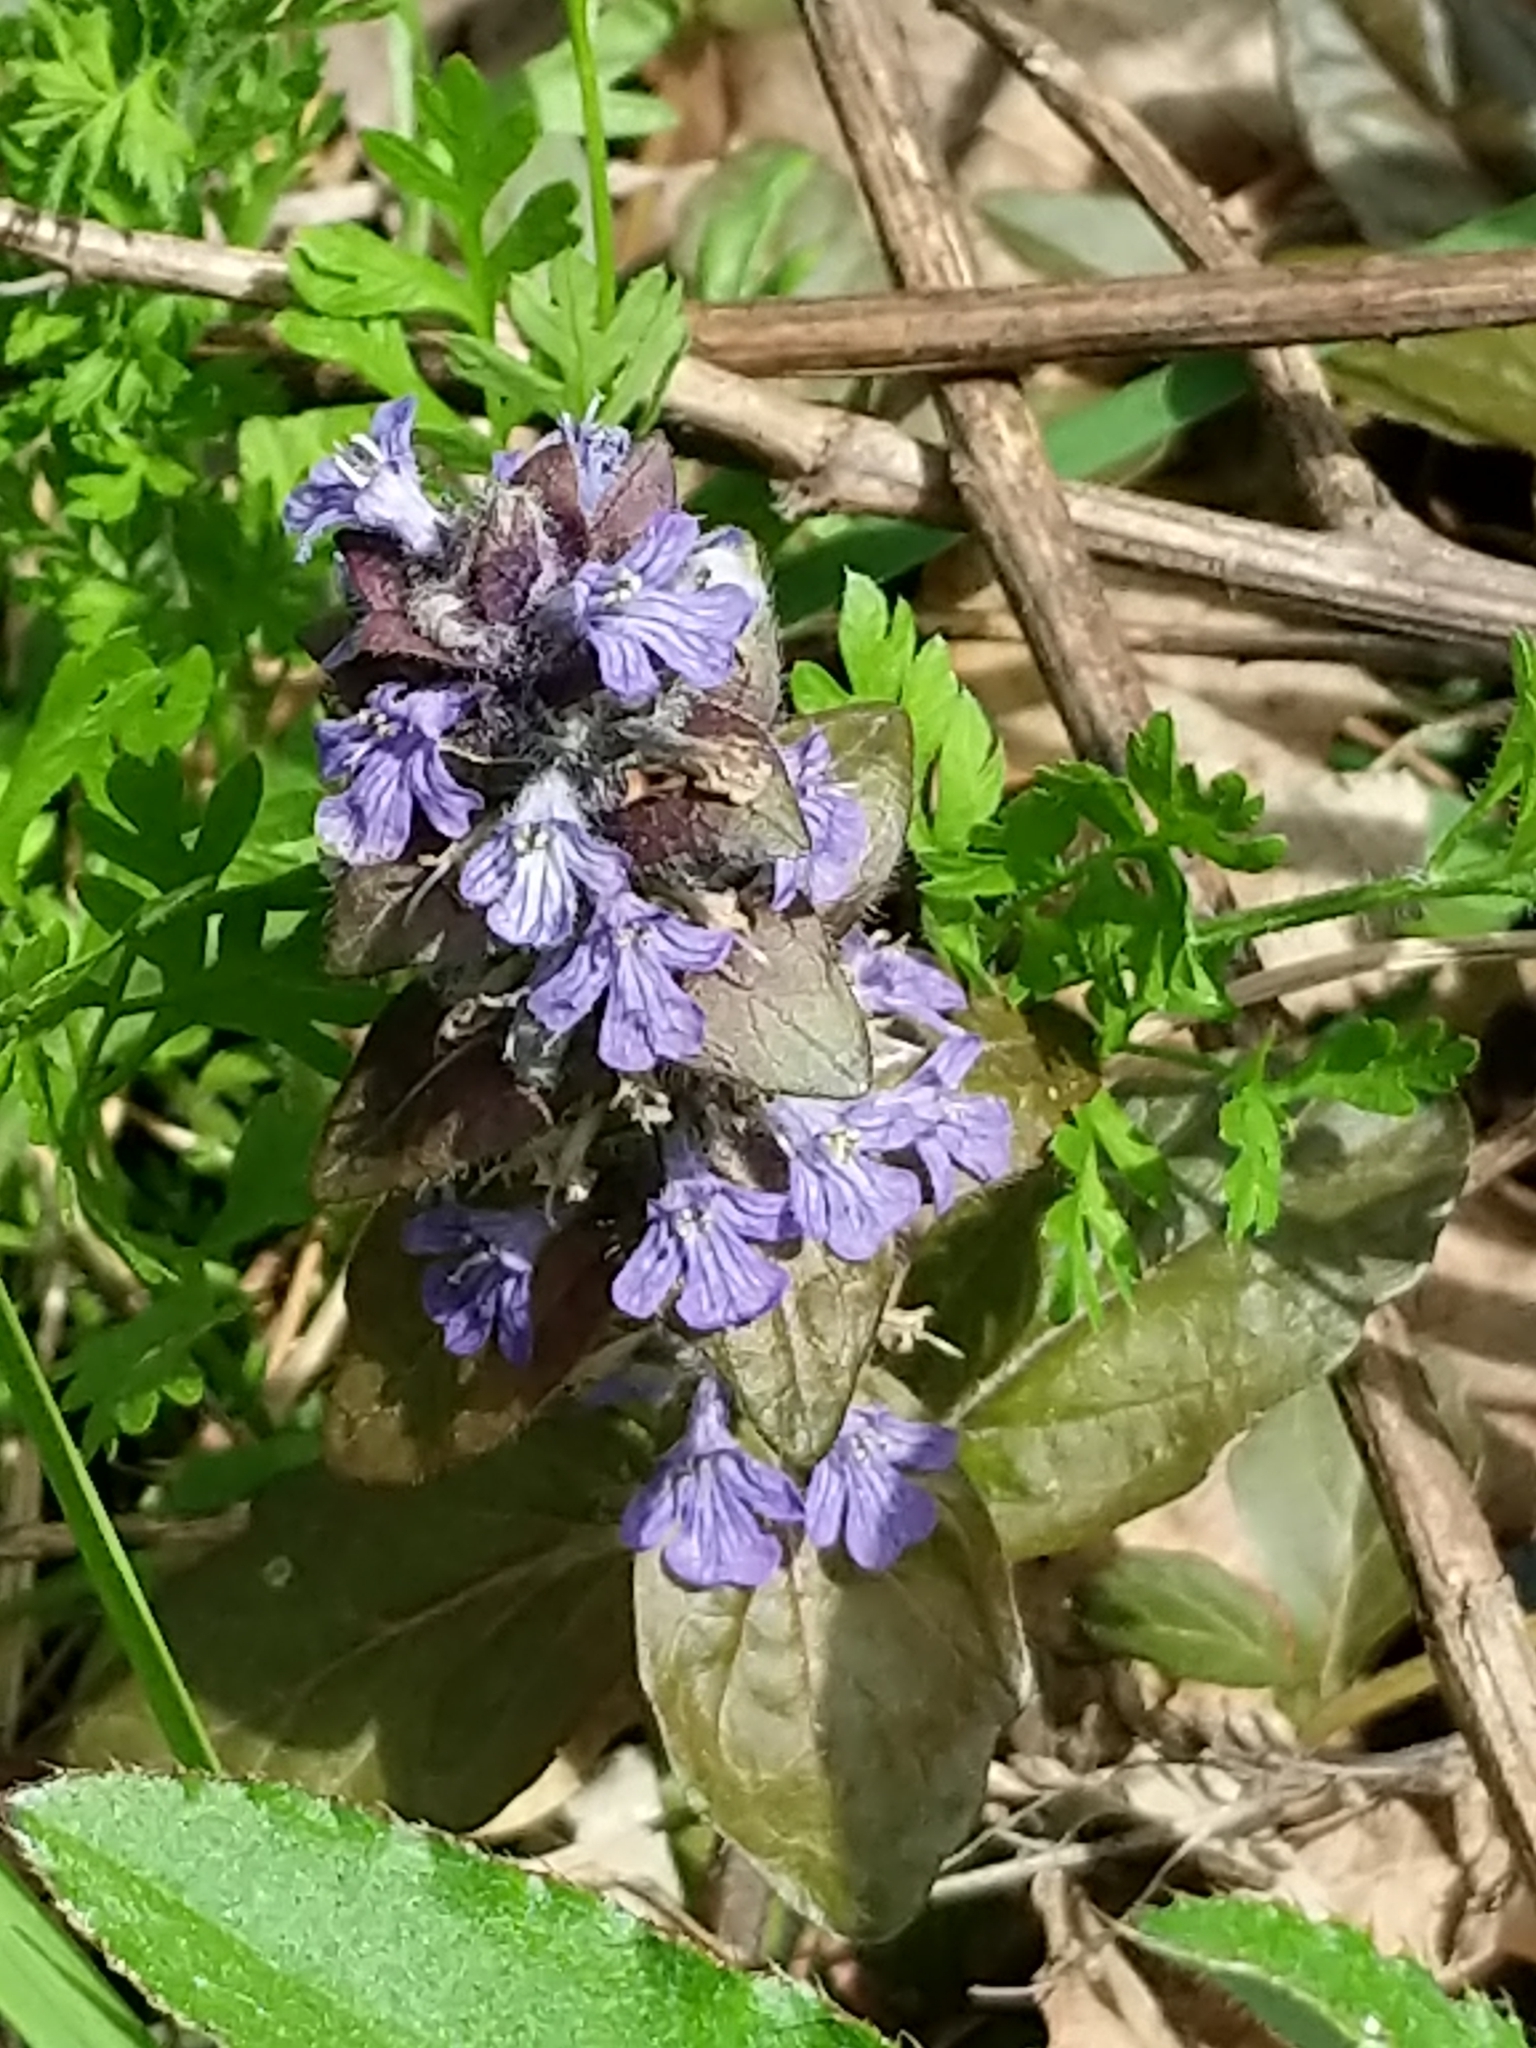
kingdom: Plantae
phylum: Tracheophyta
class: Magnoliopsida
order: Lamiales
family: Lamiaceae
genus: Ajuga
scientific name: Ajuga reptans
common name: Bugle
